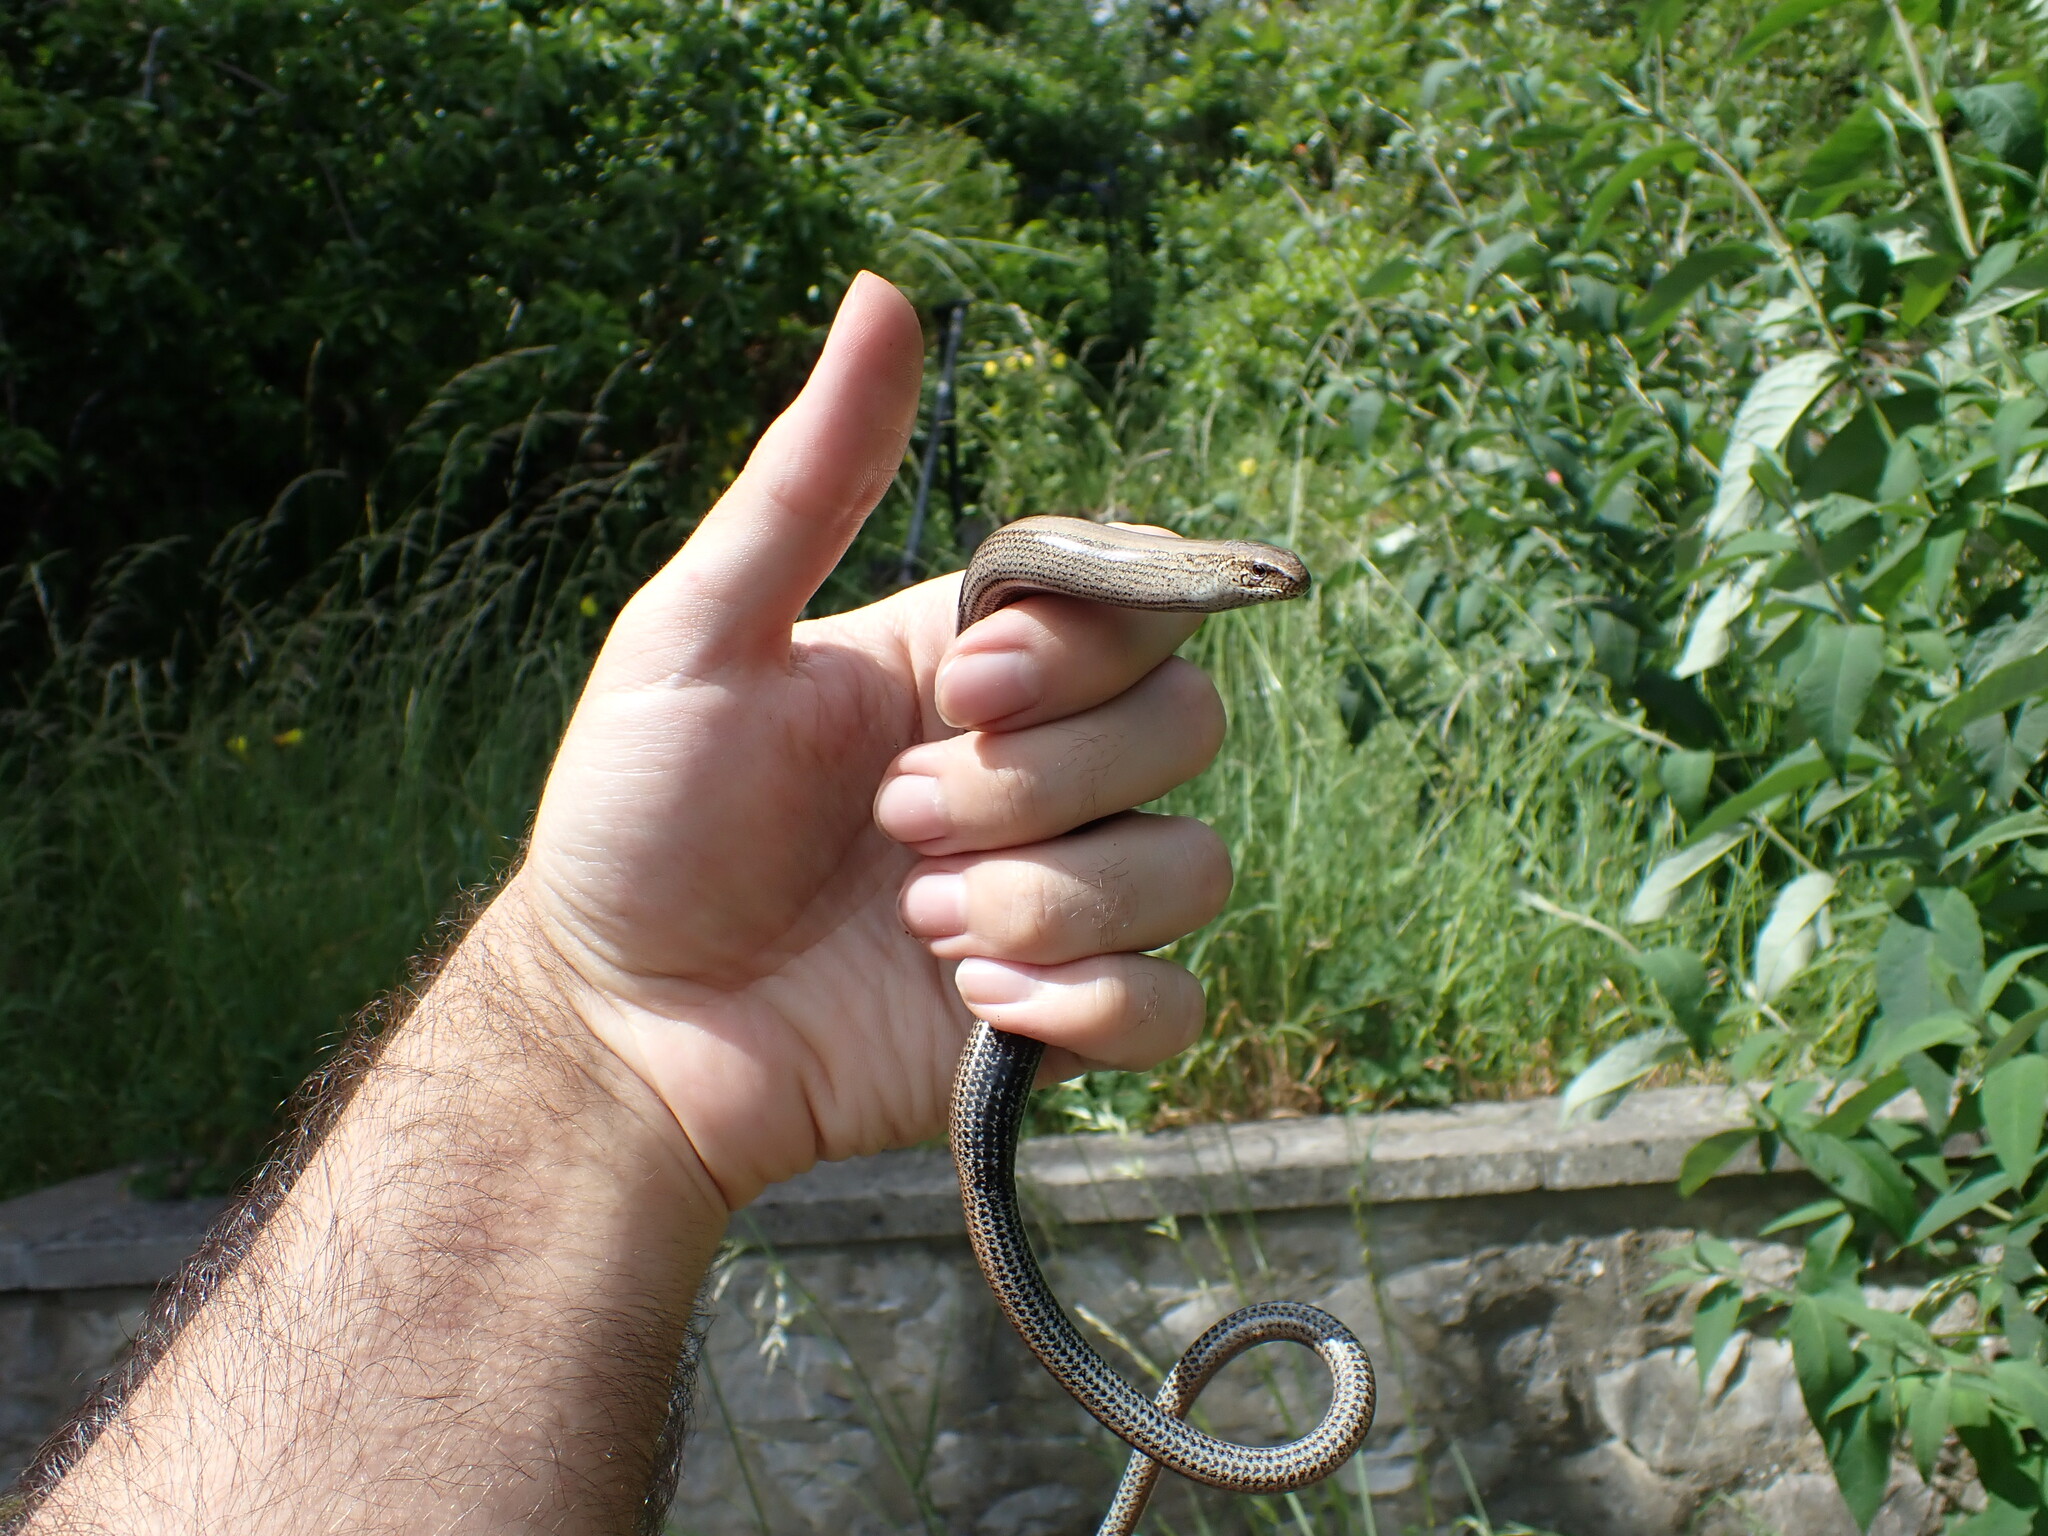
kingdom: Animalia
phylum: Chordata
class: Squamata
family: Anguidae
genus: Anguis
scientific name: Anguis fragilis
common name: Slow worm
